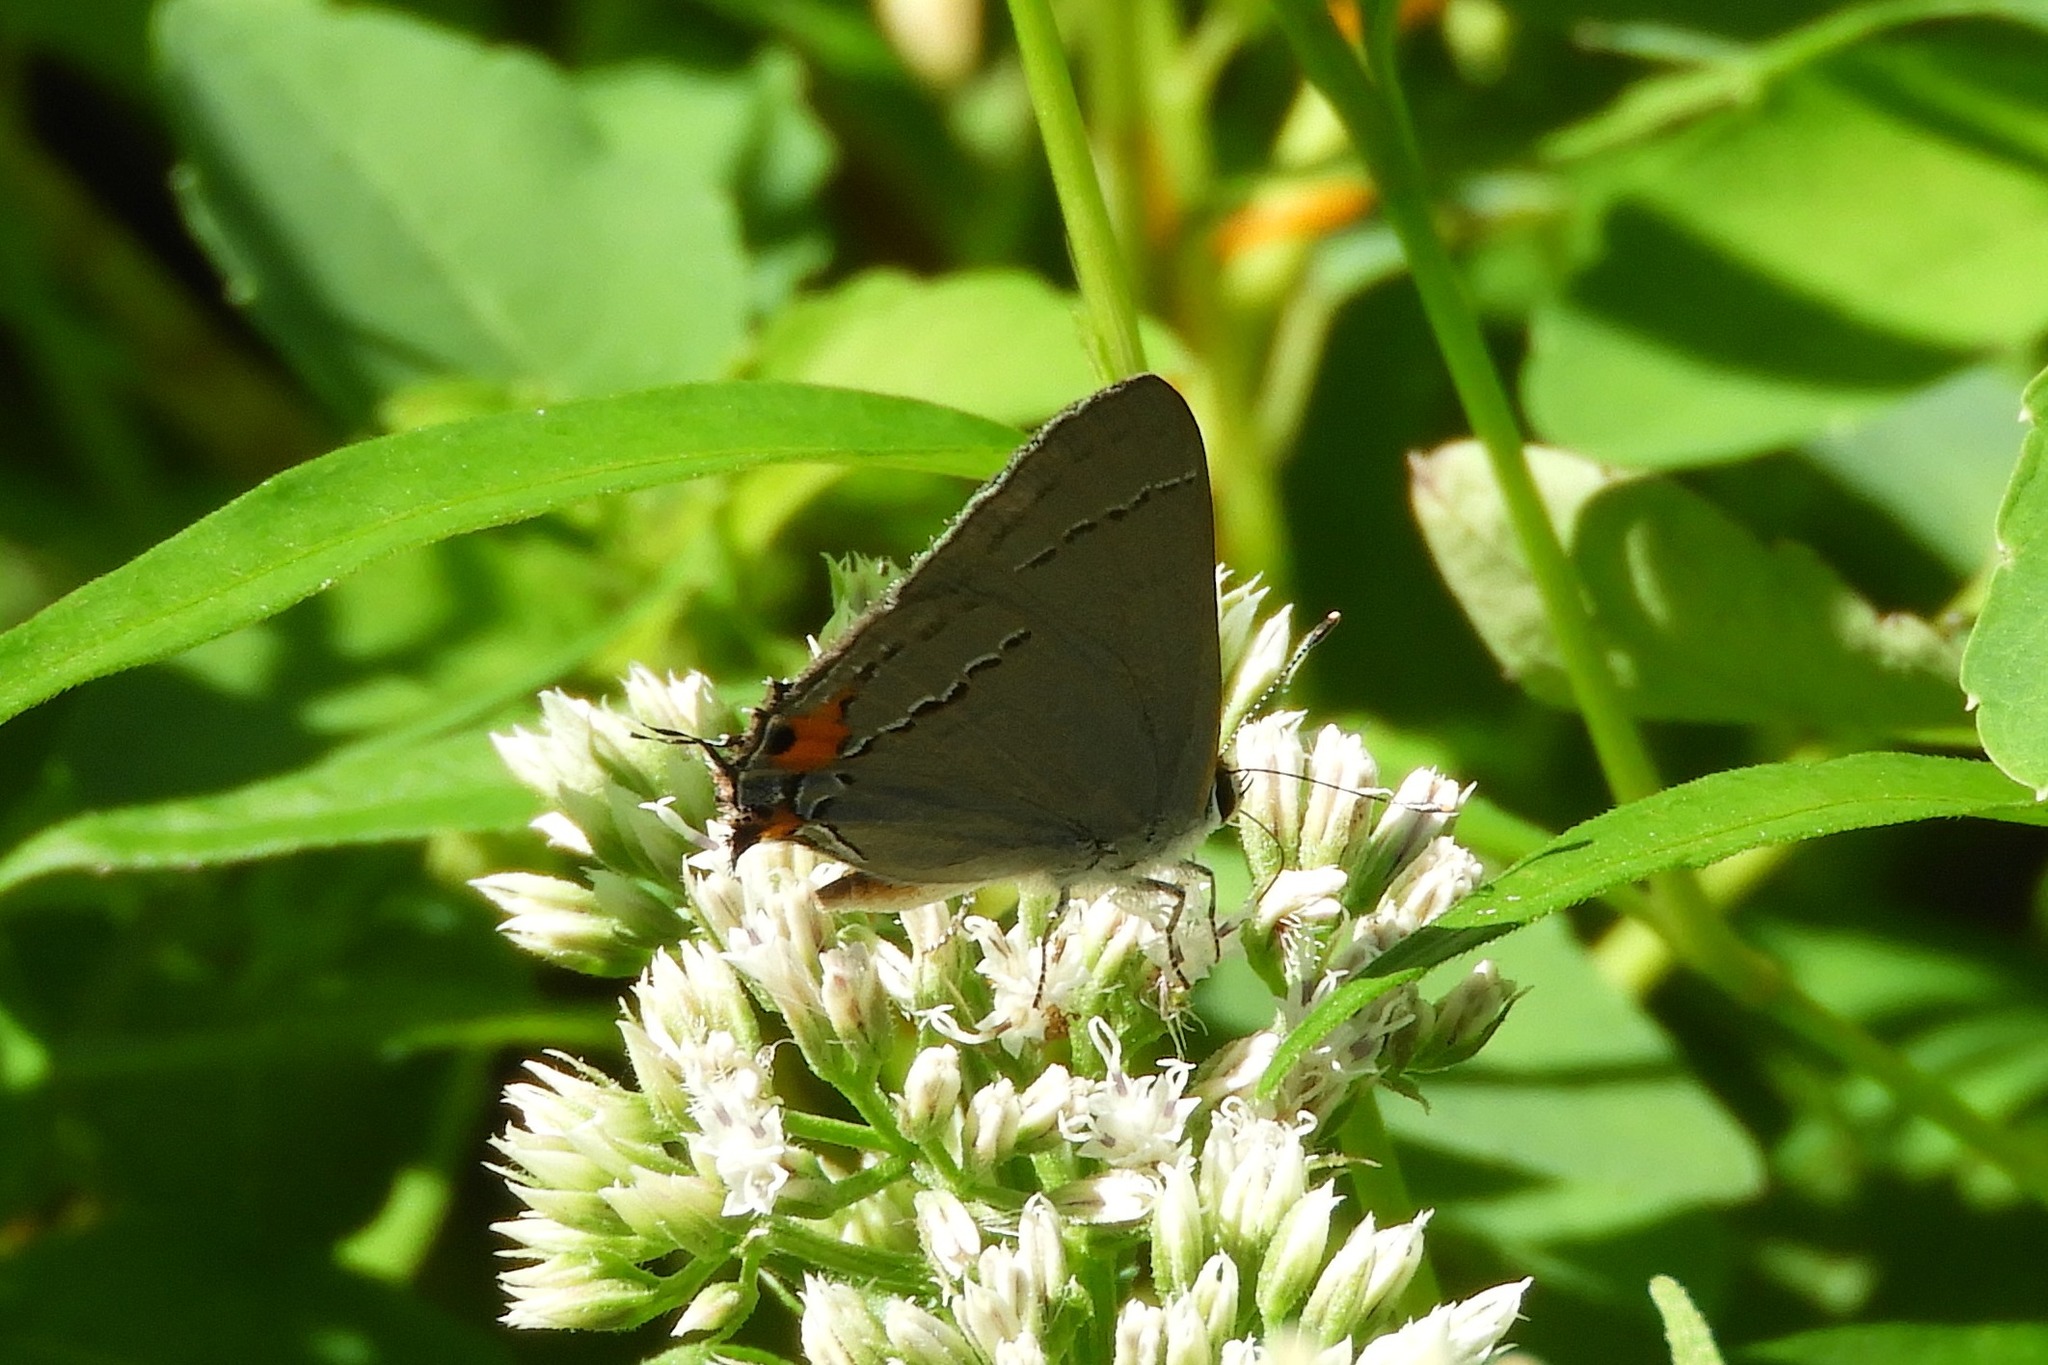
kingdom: Animalia
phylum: Arthropoda
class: Insecta
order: Lepidoptera
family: Lycaenidae
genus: Strymon
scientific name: Strymon melinus
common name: Gray hairstreak
